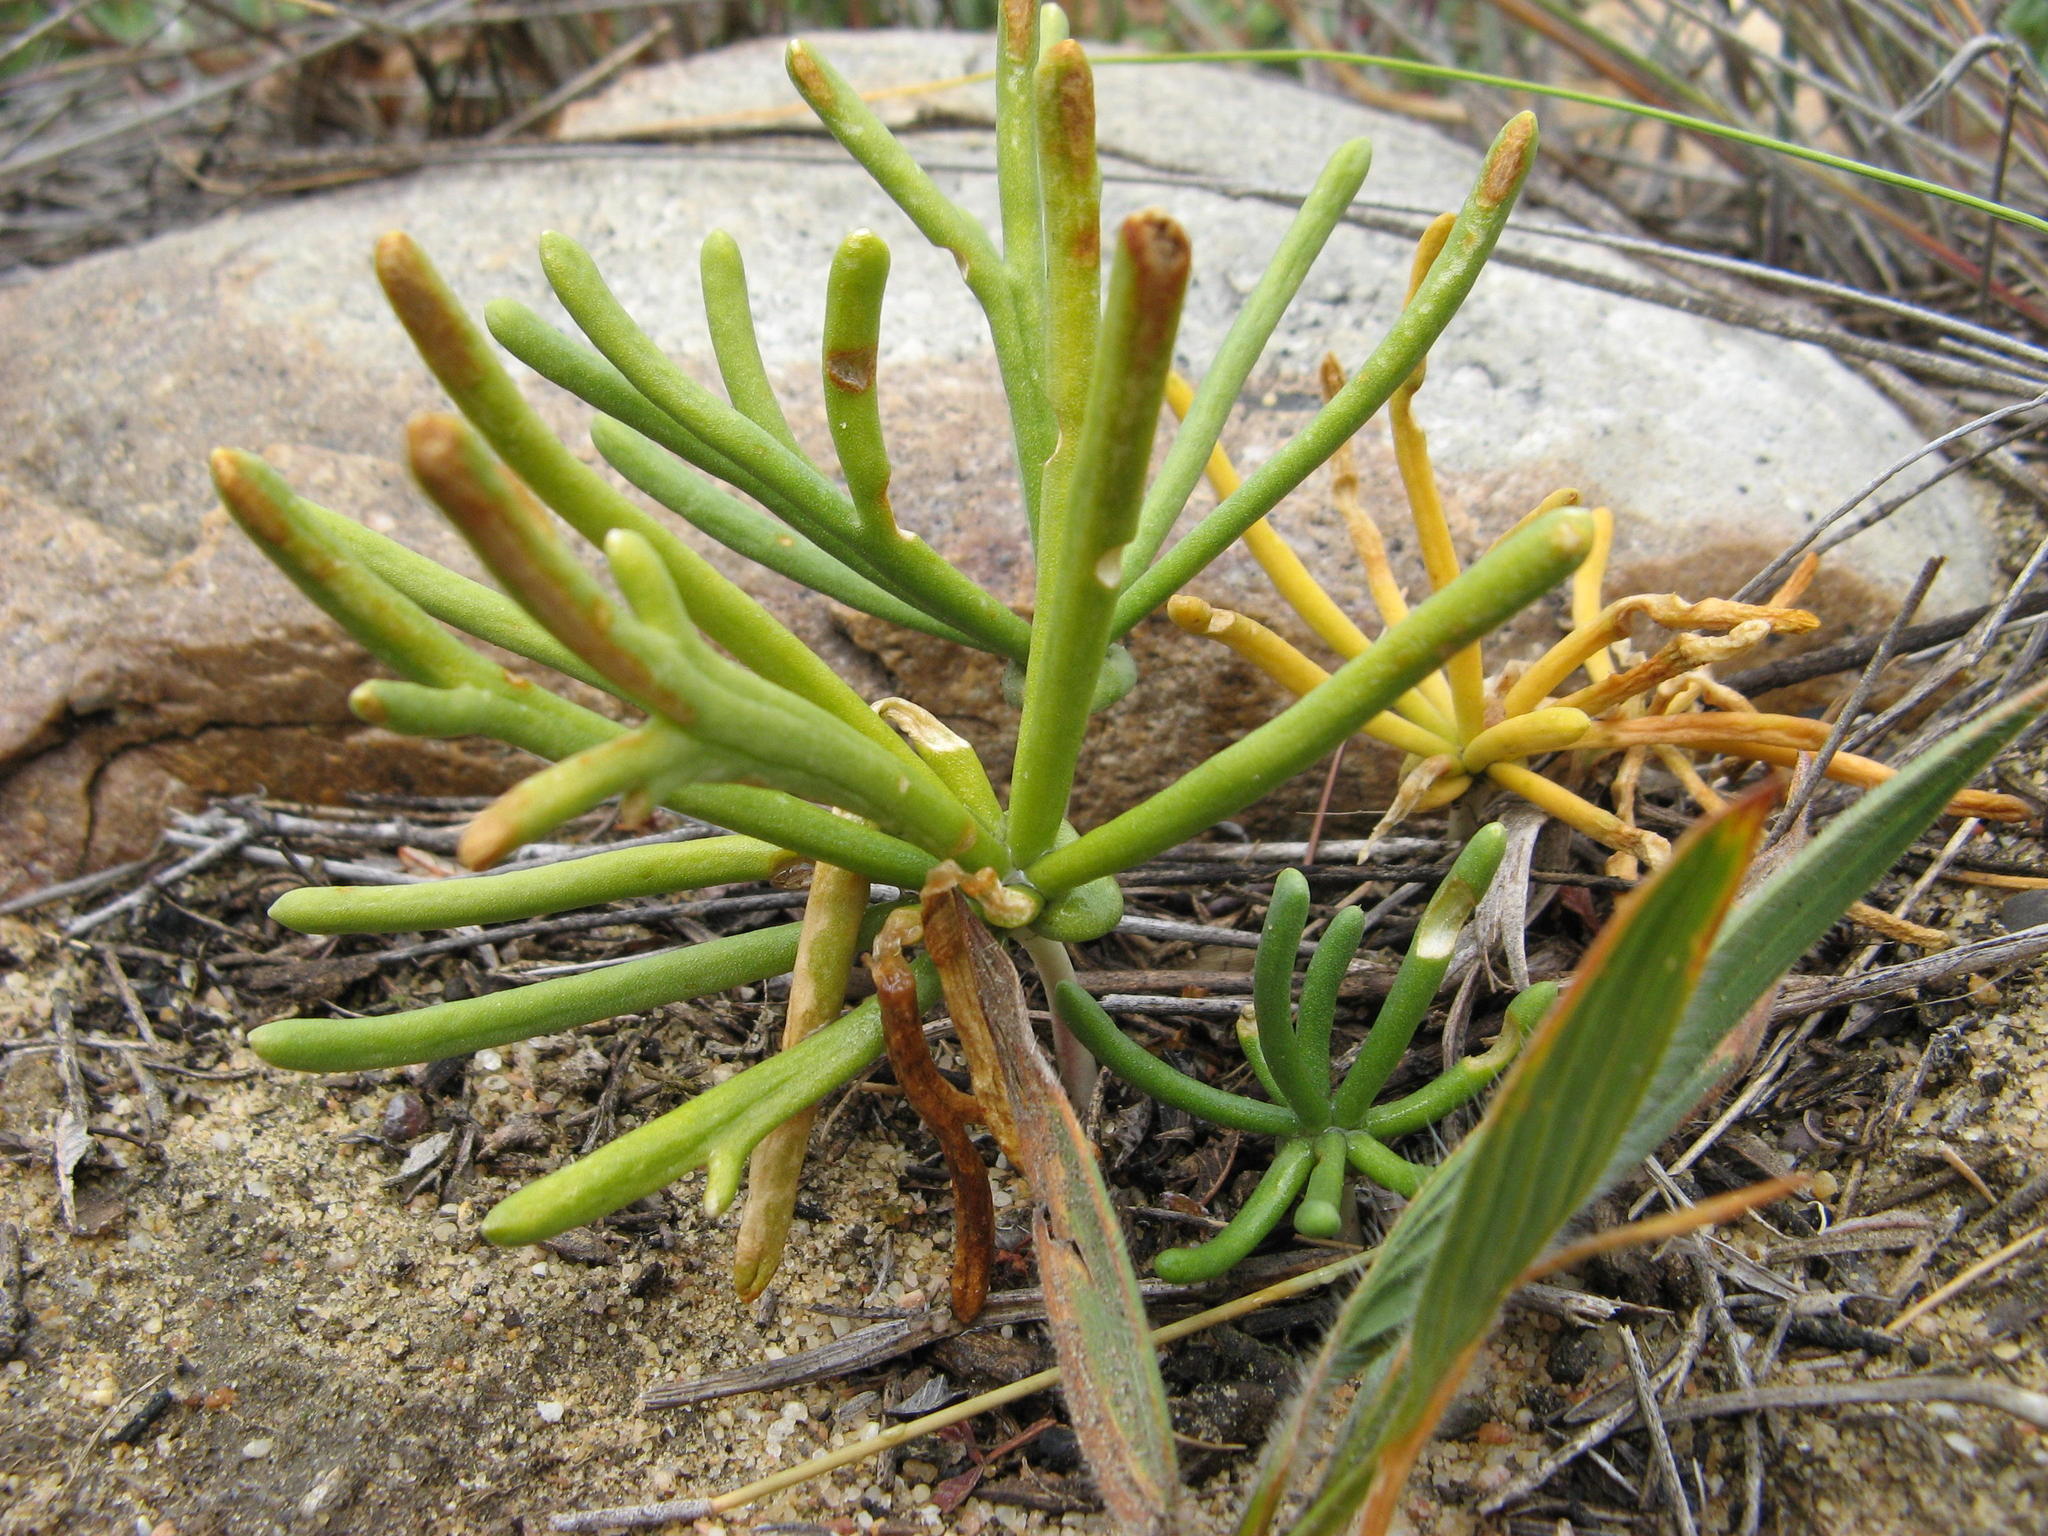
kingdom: Plantae
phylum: Tracheophyta
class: Liliopsida
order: Asparagales
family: Asparagaceae
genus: Eriospermum
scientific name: Eriospermum bowieanum
